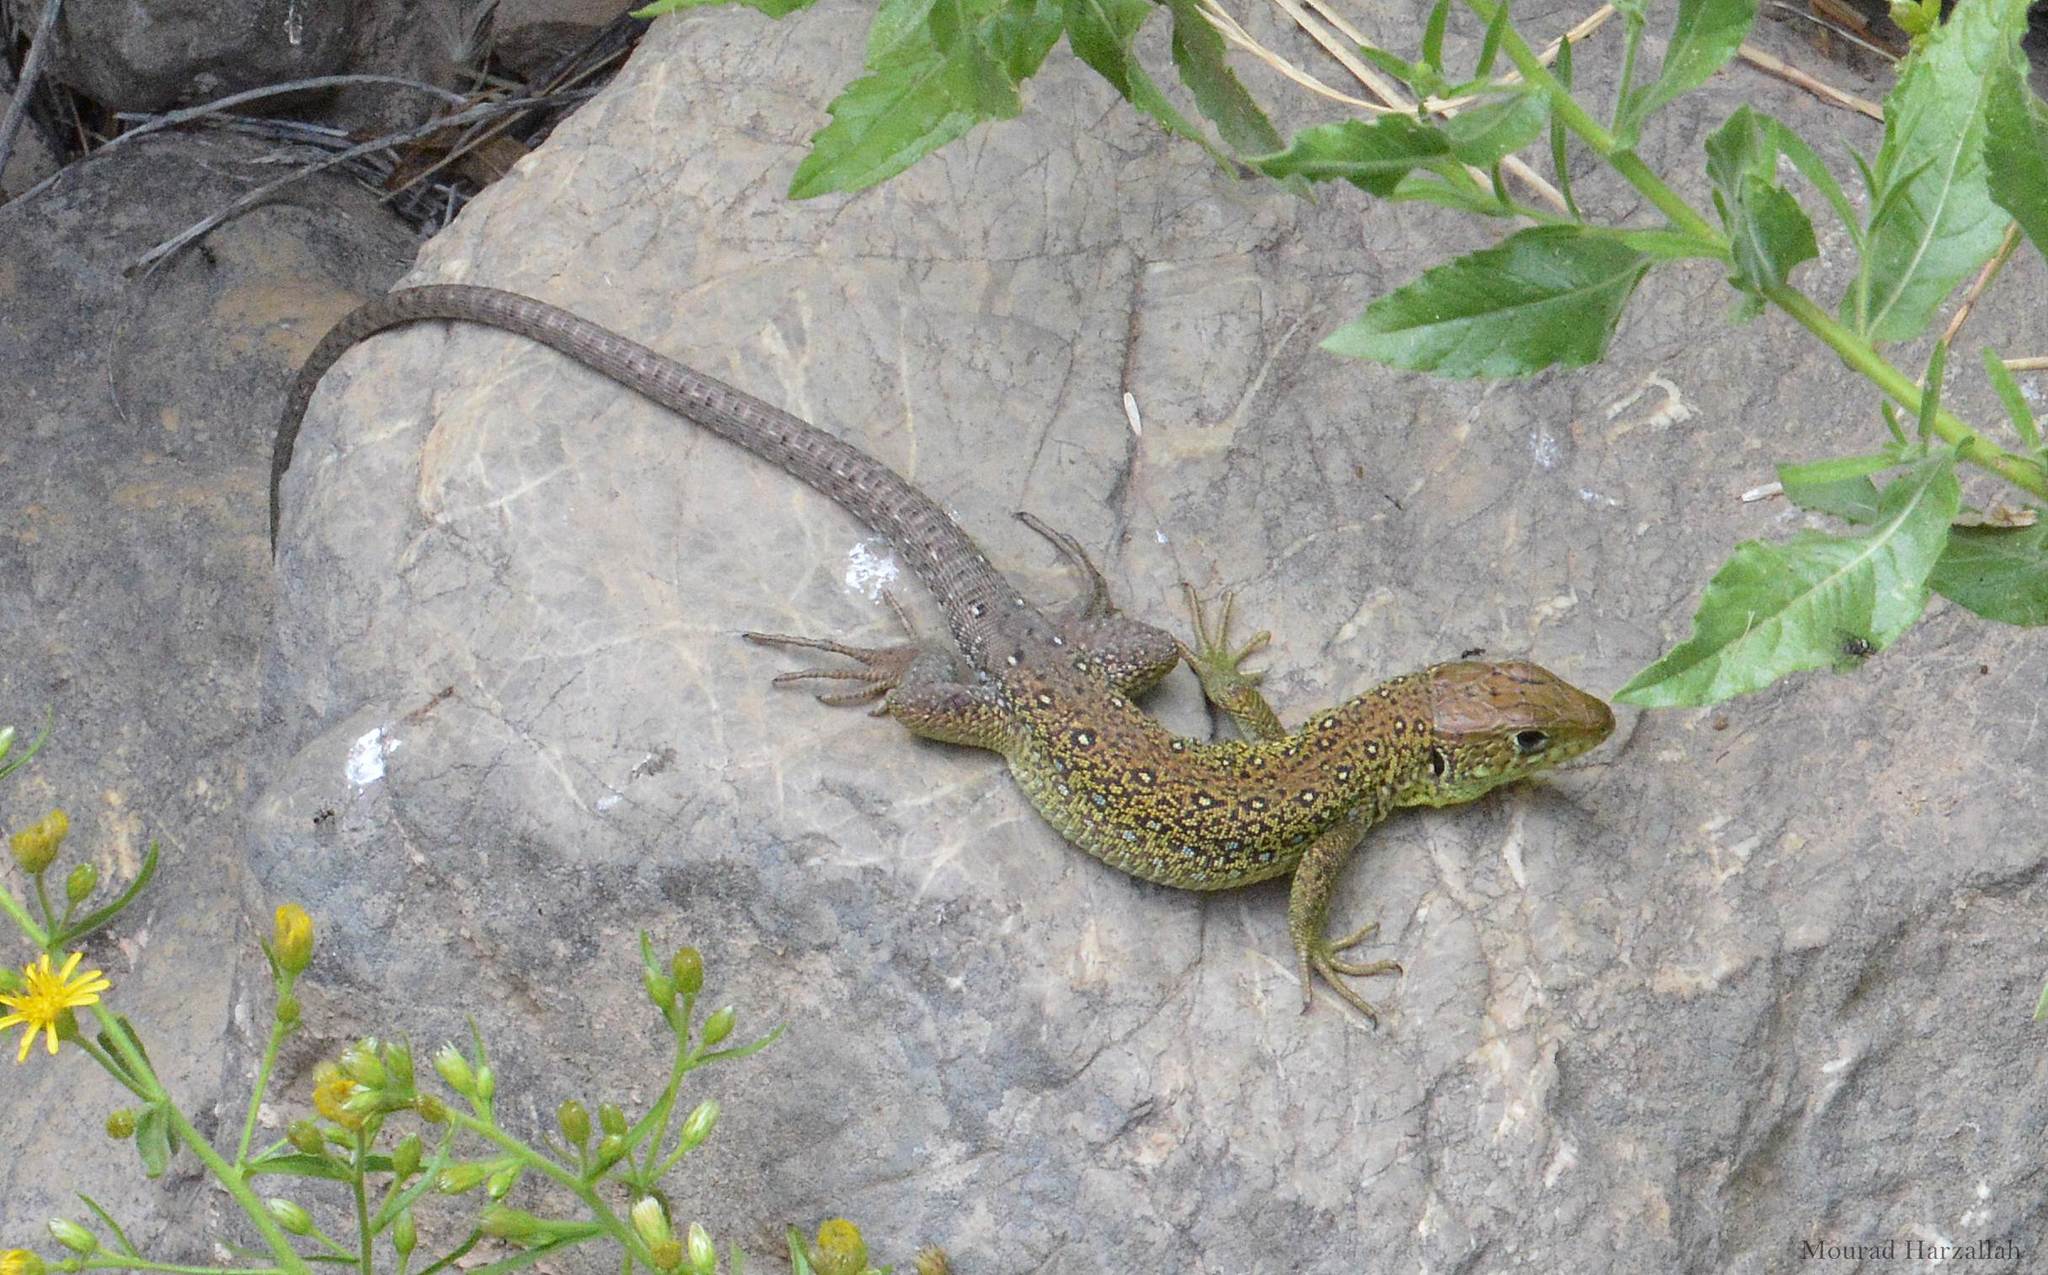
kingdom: Animalia
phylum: Chordata
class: Squamata
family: Lacertidae
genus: Timon
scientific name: Timon pater
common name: North african ocellated lizard
